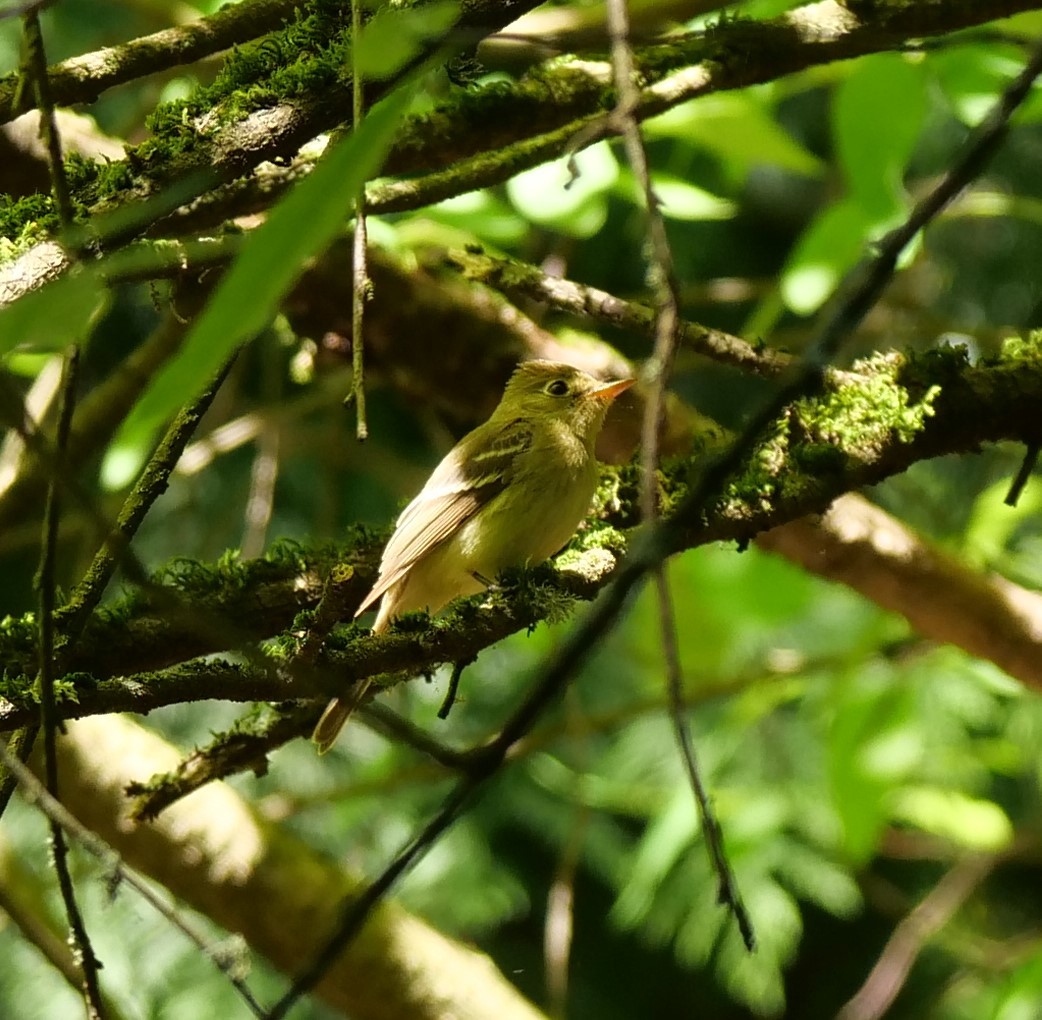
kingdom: Animalia
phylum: Chordata
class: Aves
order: Passeriformes
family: Tyrannidae
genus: Empidonax
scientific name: Empidonax difficilis
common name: Pacific-slope flycatcher
